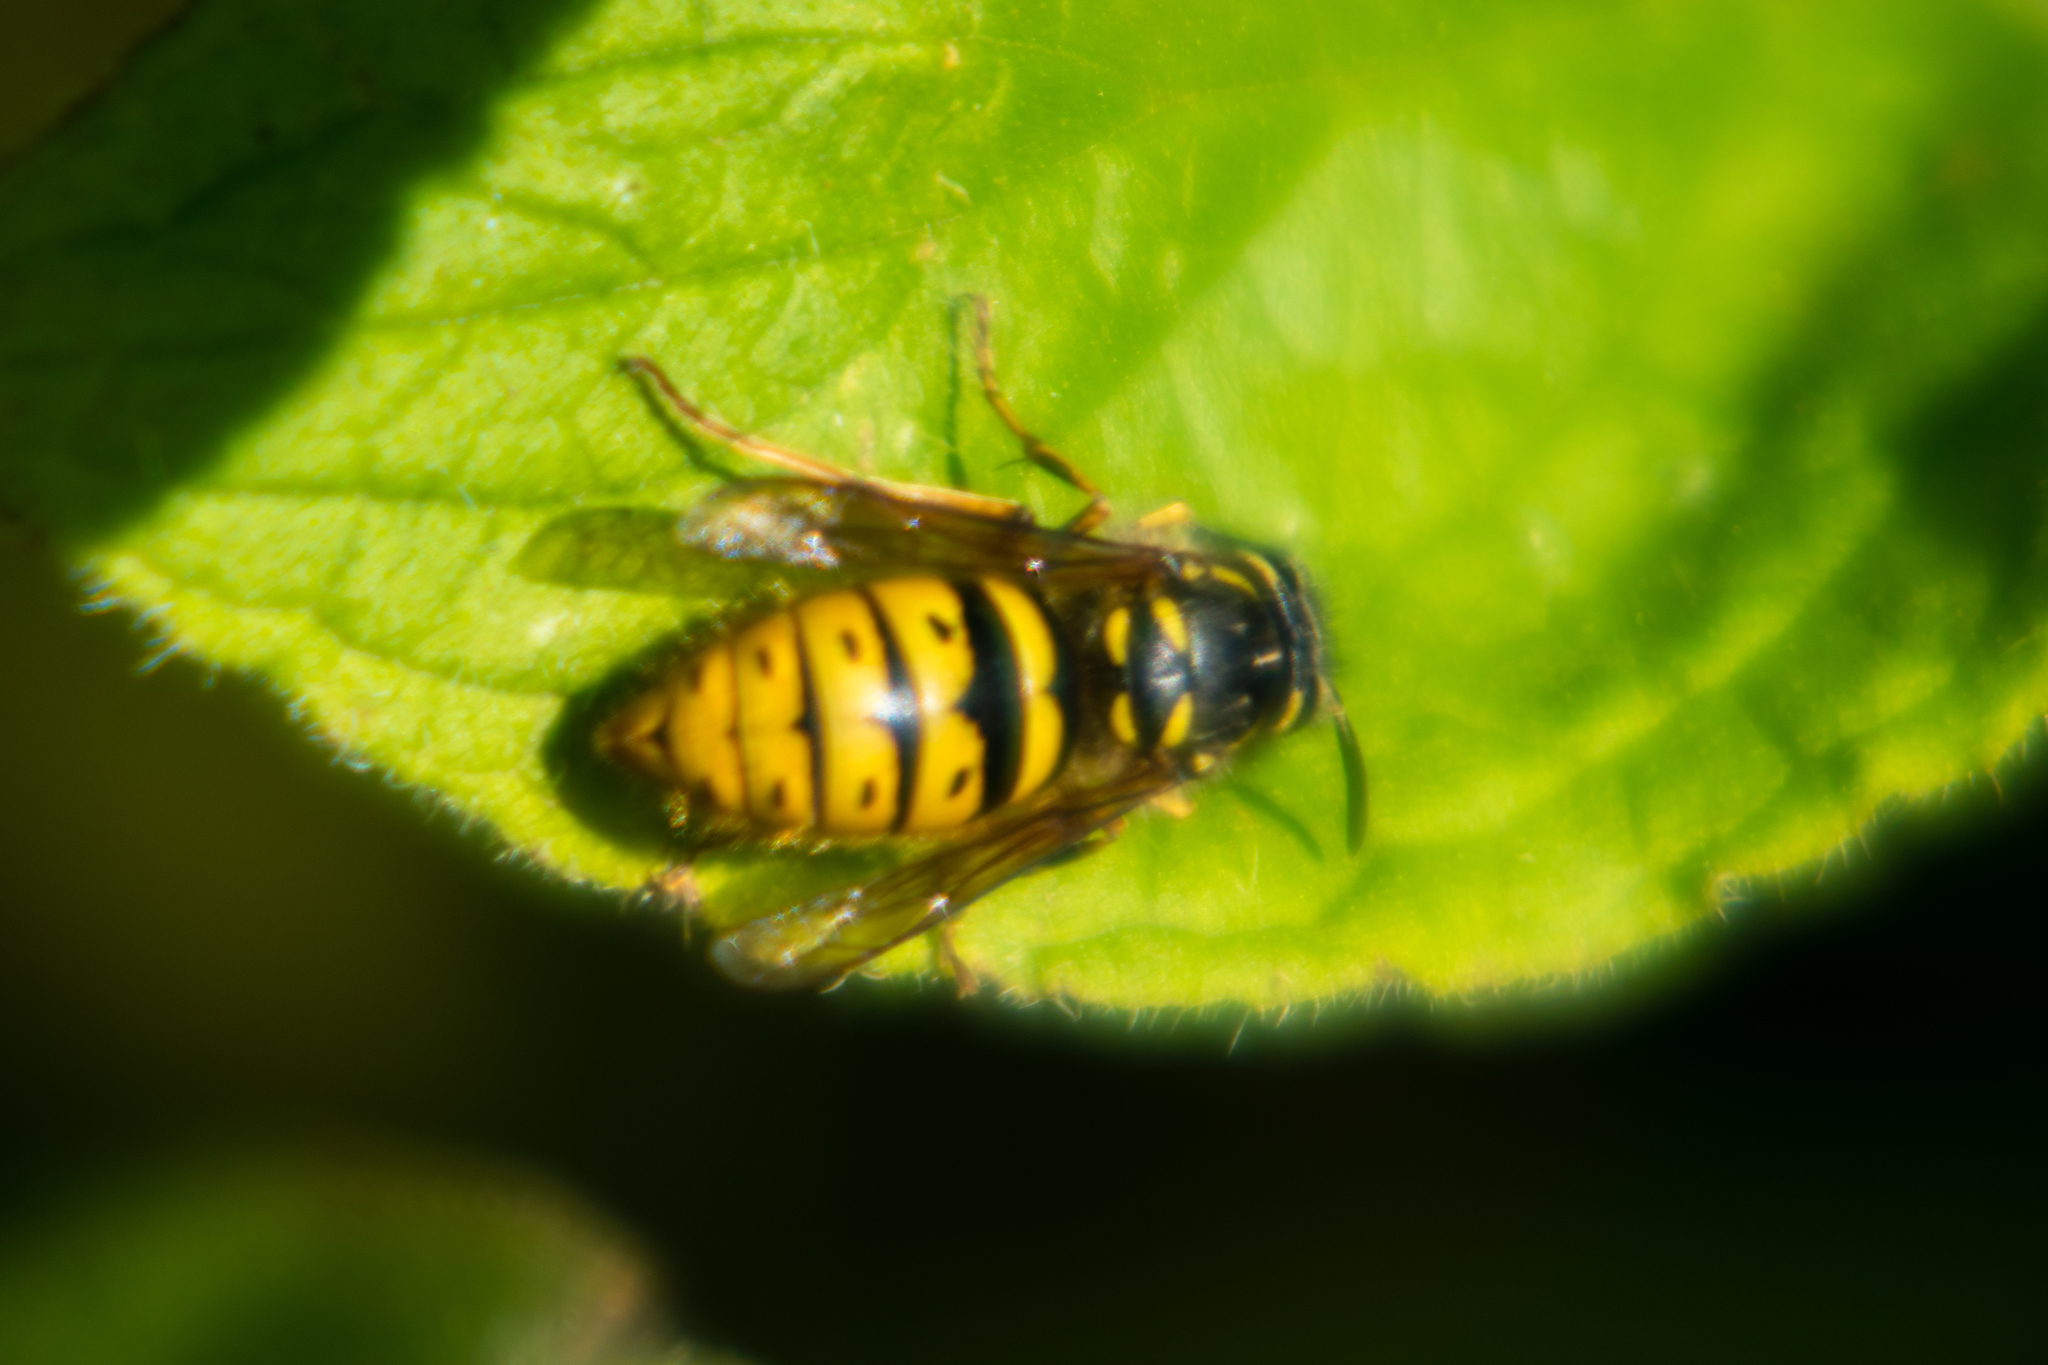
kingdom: Animalia
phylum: Arthropoda
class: Insecta
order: Hymenoptera
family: Vespidae
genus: Vespula
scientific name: Vespula vulgaris
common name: Common wasp
